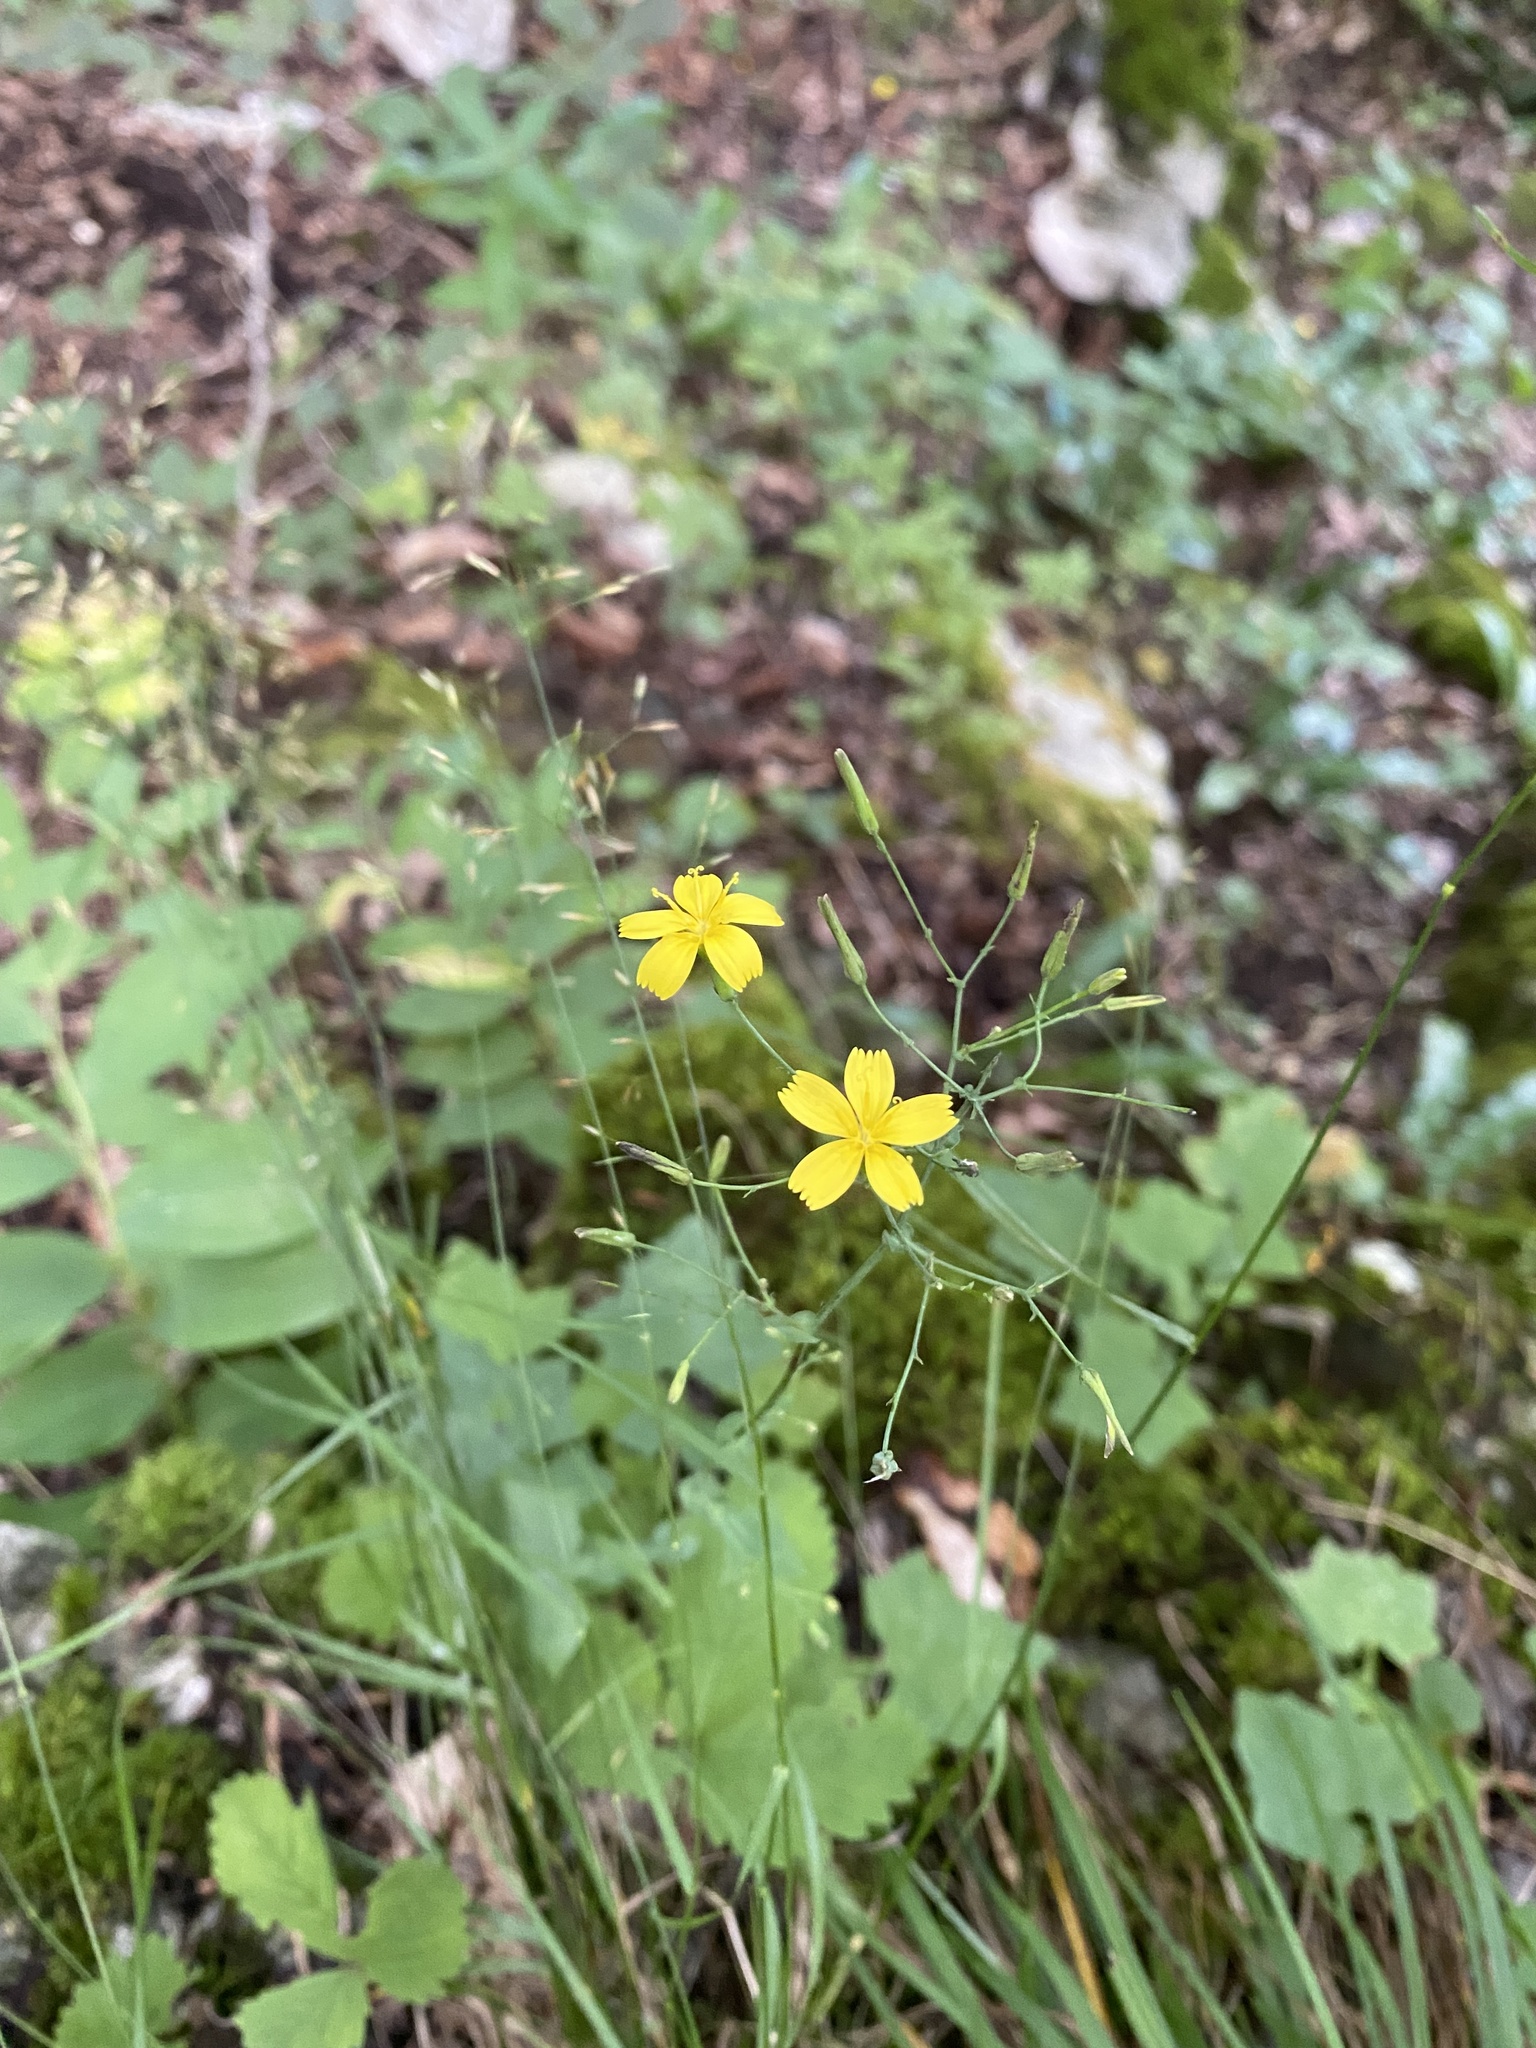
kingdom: Plantae
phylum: Tracheophyta
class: Magnoliopsida
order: Asterales
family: Asteraceae
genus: Mycelis
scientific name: Mycelis muralis
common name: Wall lettuce
